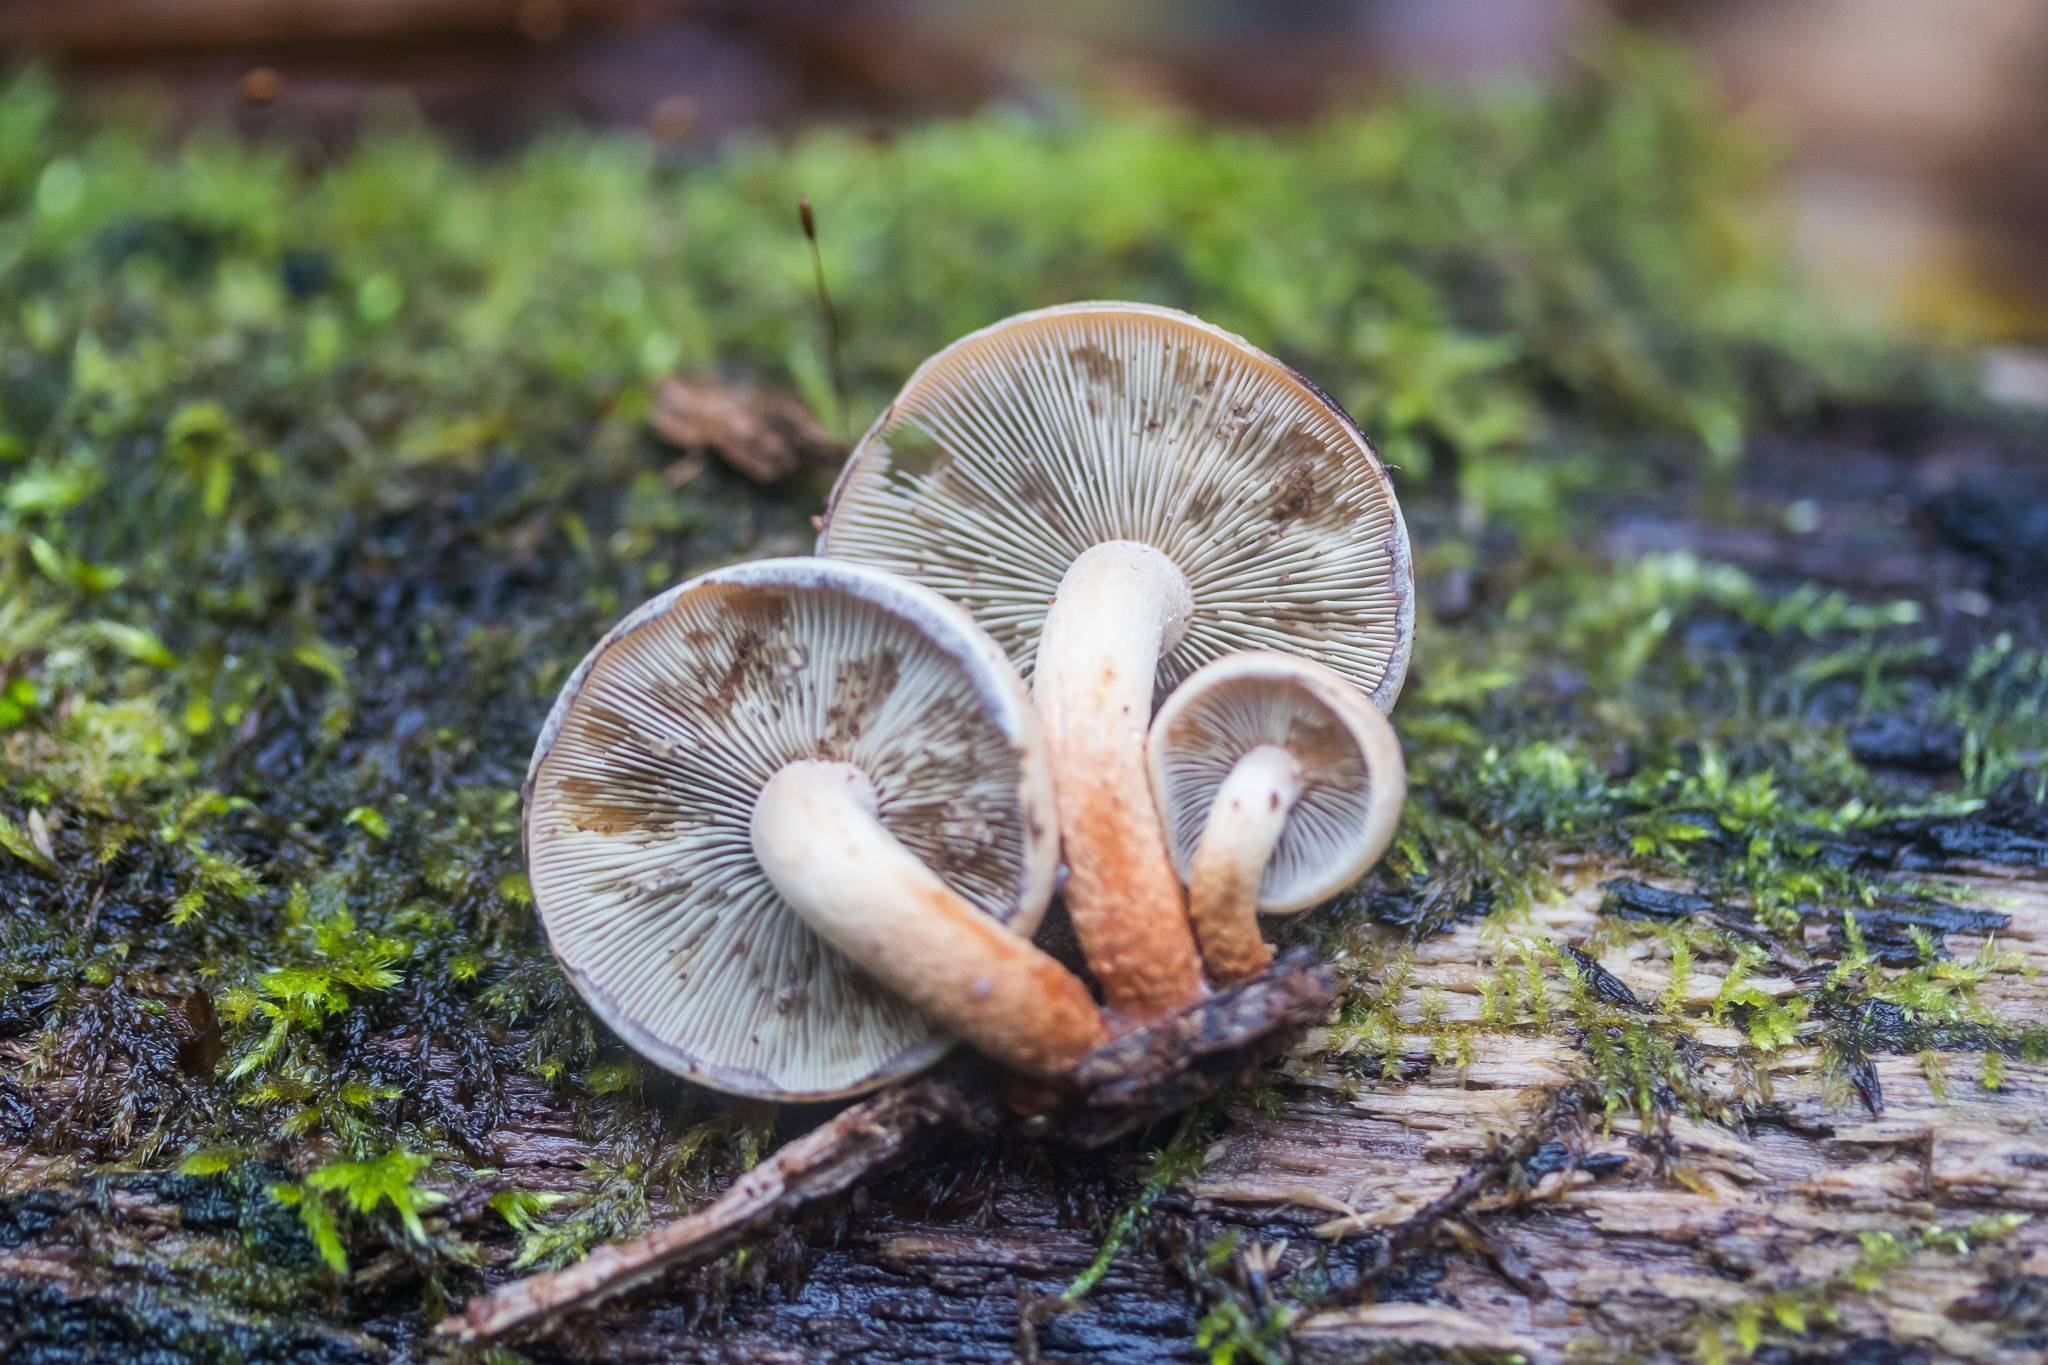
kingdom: Fungi
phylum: Basidiomycota
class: Agaricomycetes
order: Agaricales
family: Strophariaceae
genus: Hypholoma
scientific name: Hypholoma lateritium
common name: Brick caps
